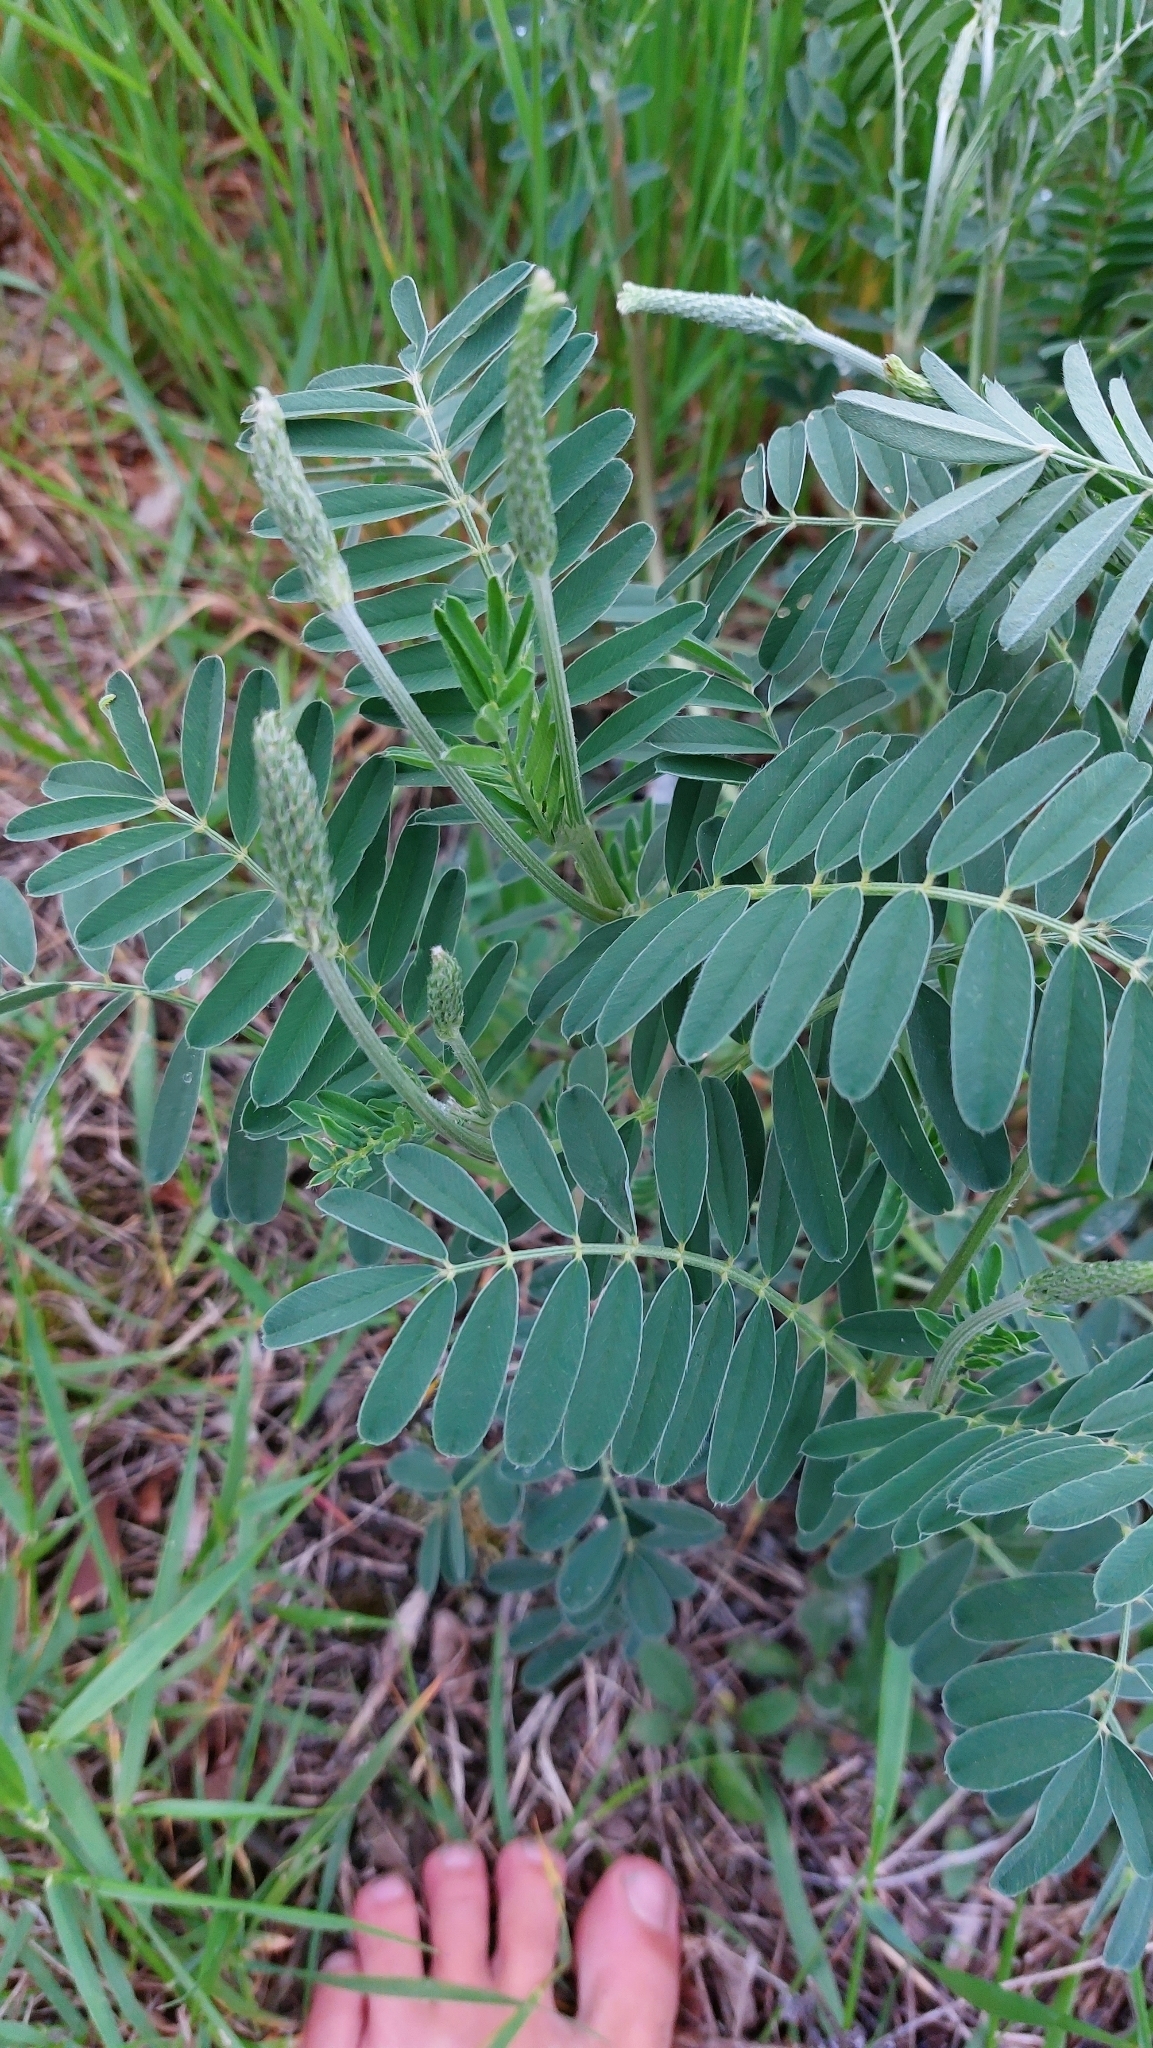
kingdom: Plantae
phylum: Tracheophyta
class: Magnoliopsida
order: Fabales
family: Fabaceae
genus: Onobrychis
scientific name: Onobrychis viciifolia
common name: Sainfoin
